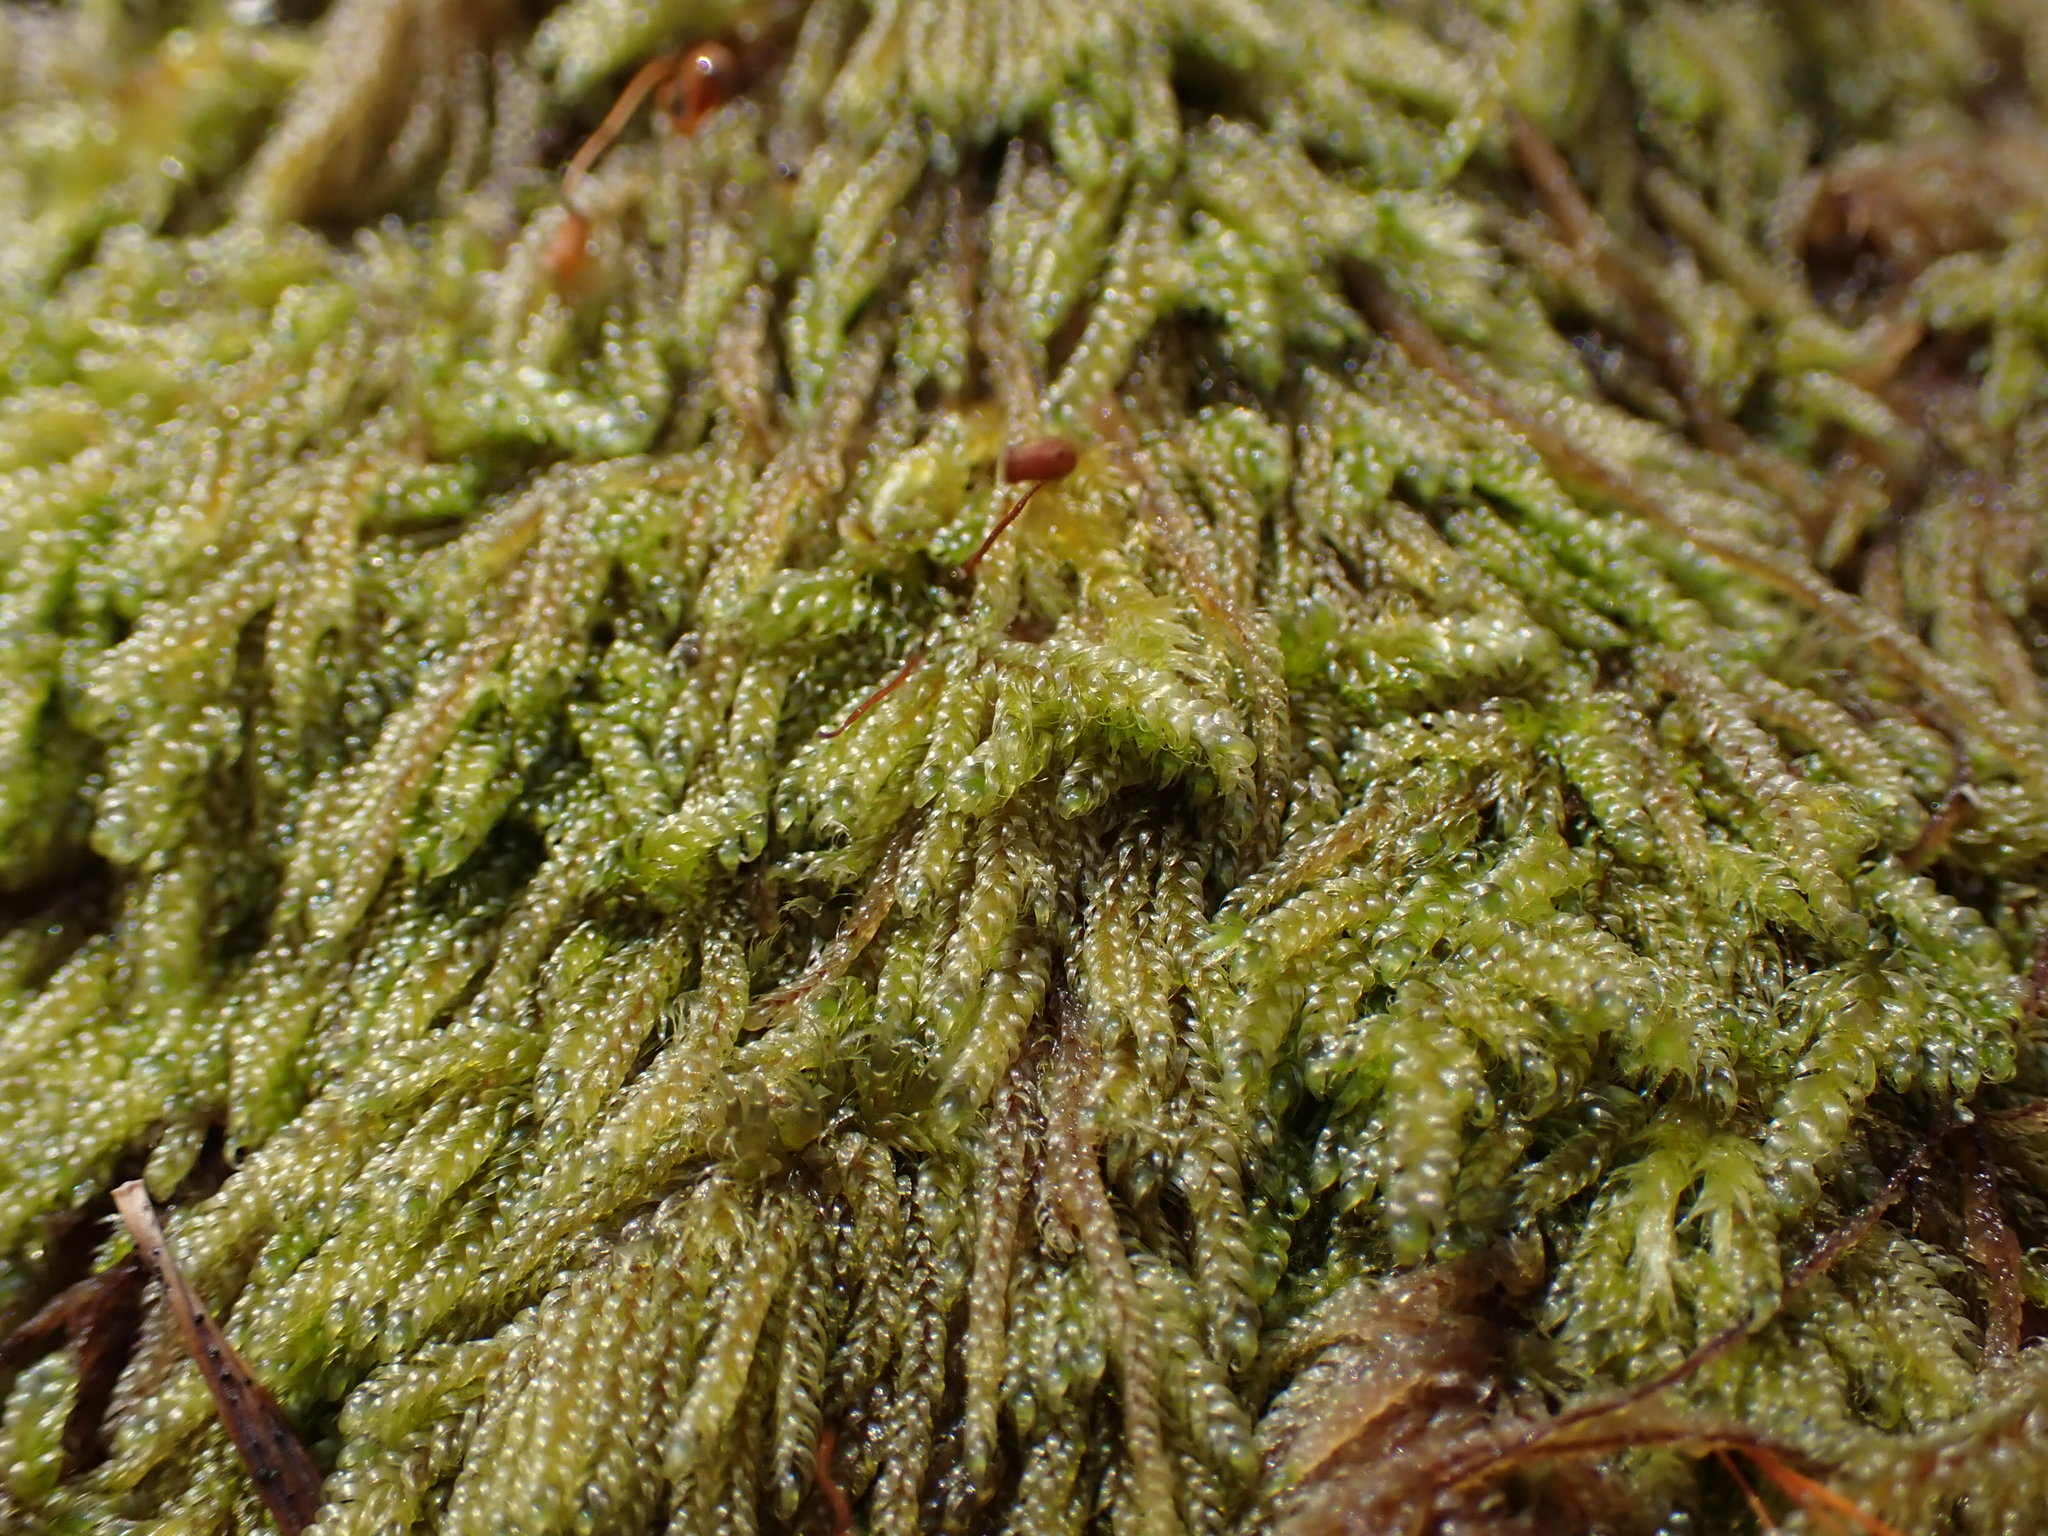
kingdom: Plantae
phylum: Bryophyta
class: Bryopsida
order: Hypnales
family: Pylaisiadelphaceae
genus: Trochophyllohypnum
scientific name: Trochophyllohypnum circinale
